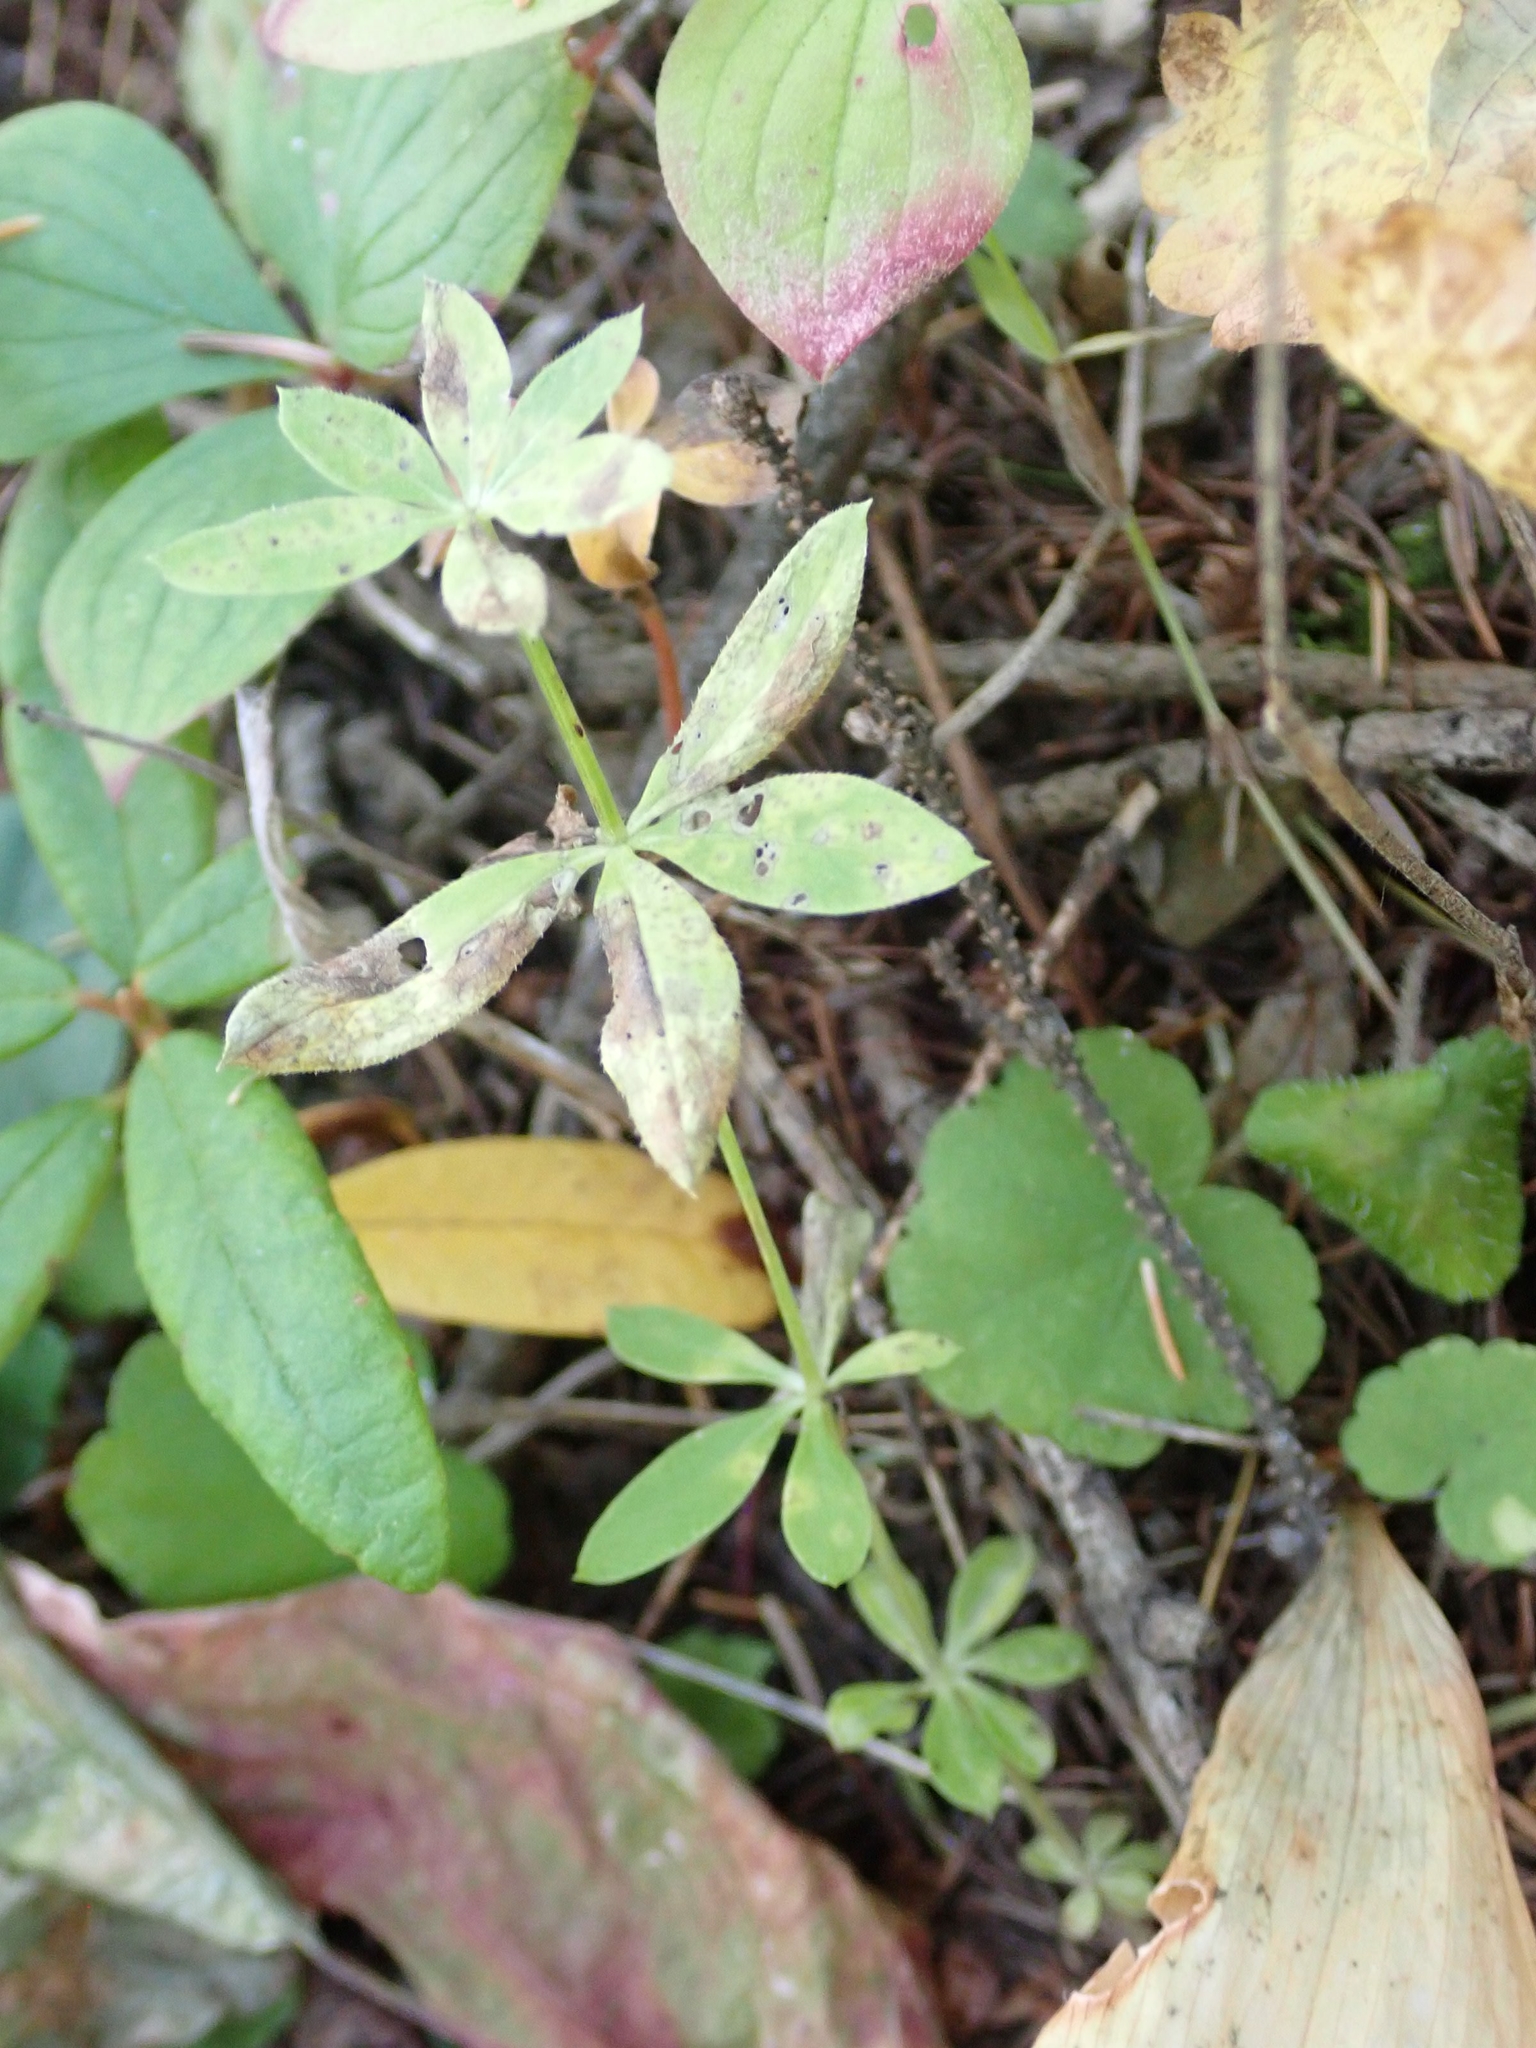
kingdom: Plantae
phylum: Tracheophyta
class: Magnoliopsida
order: Gentianales
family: Rubiaceae
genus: Galium
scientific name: Galium triflorum
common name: Fragrant bedstraw
